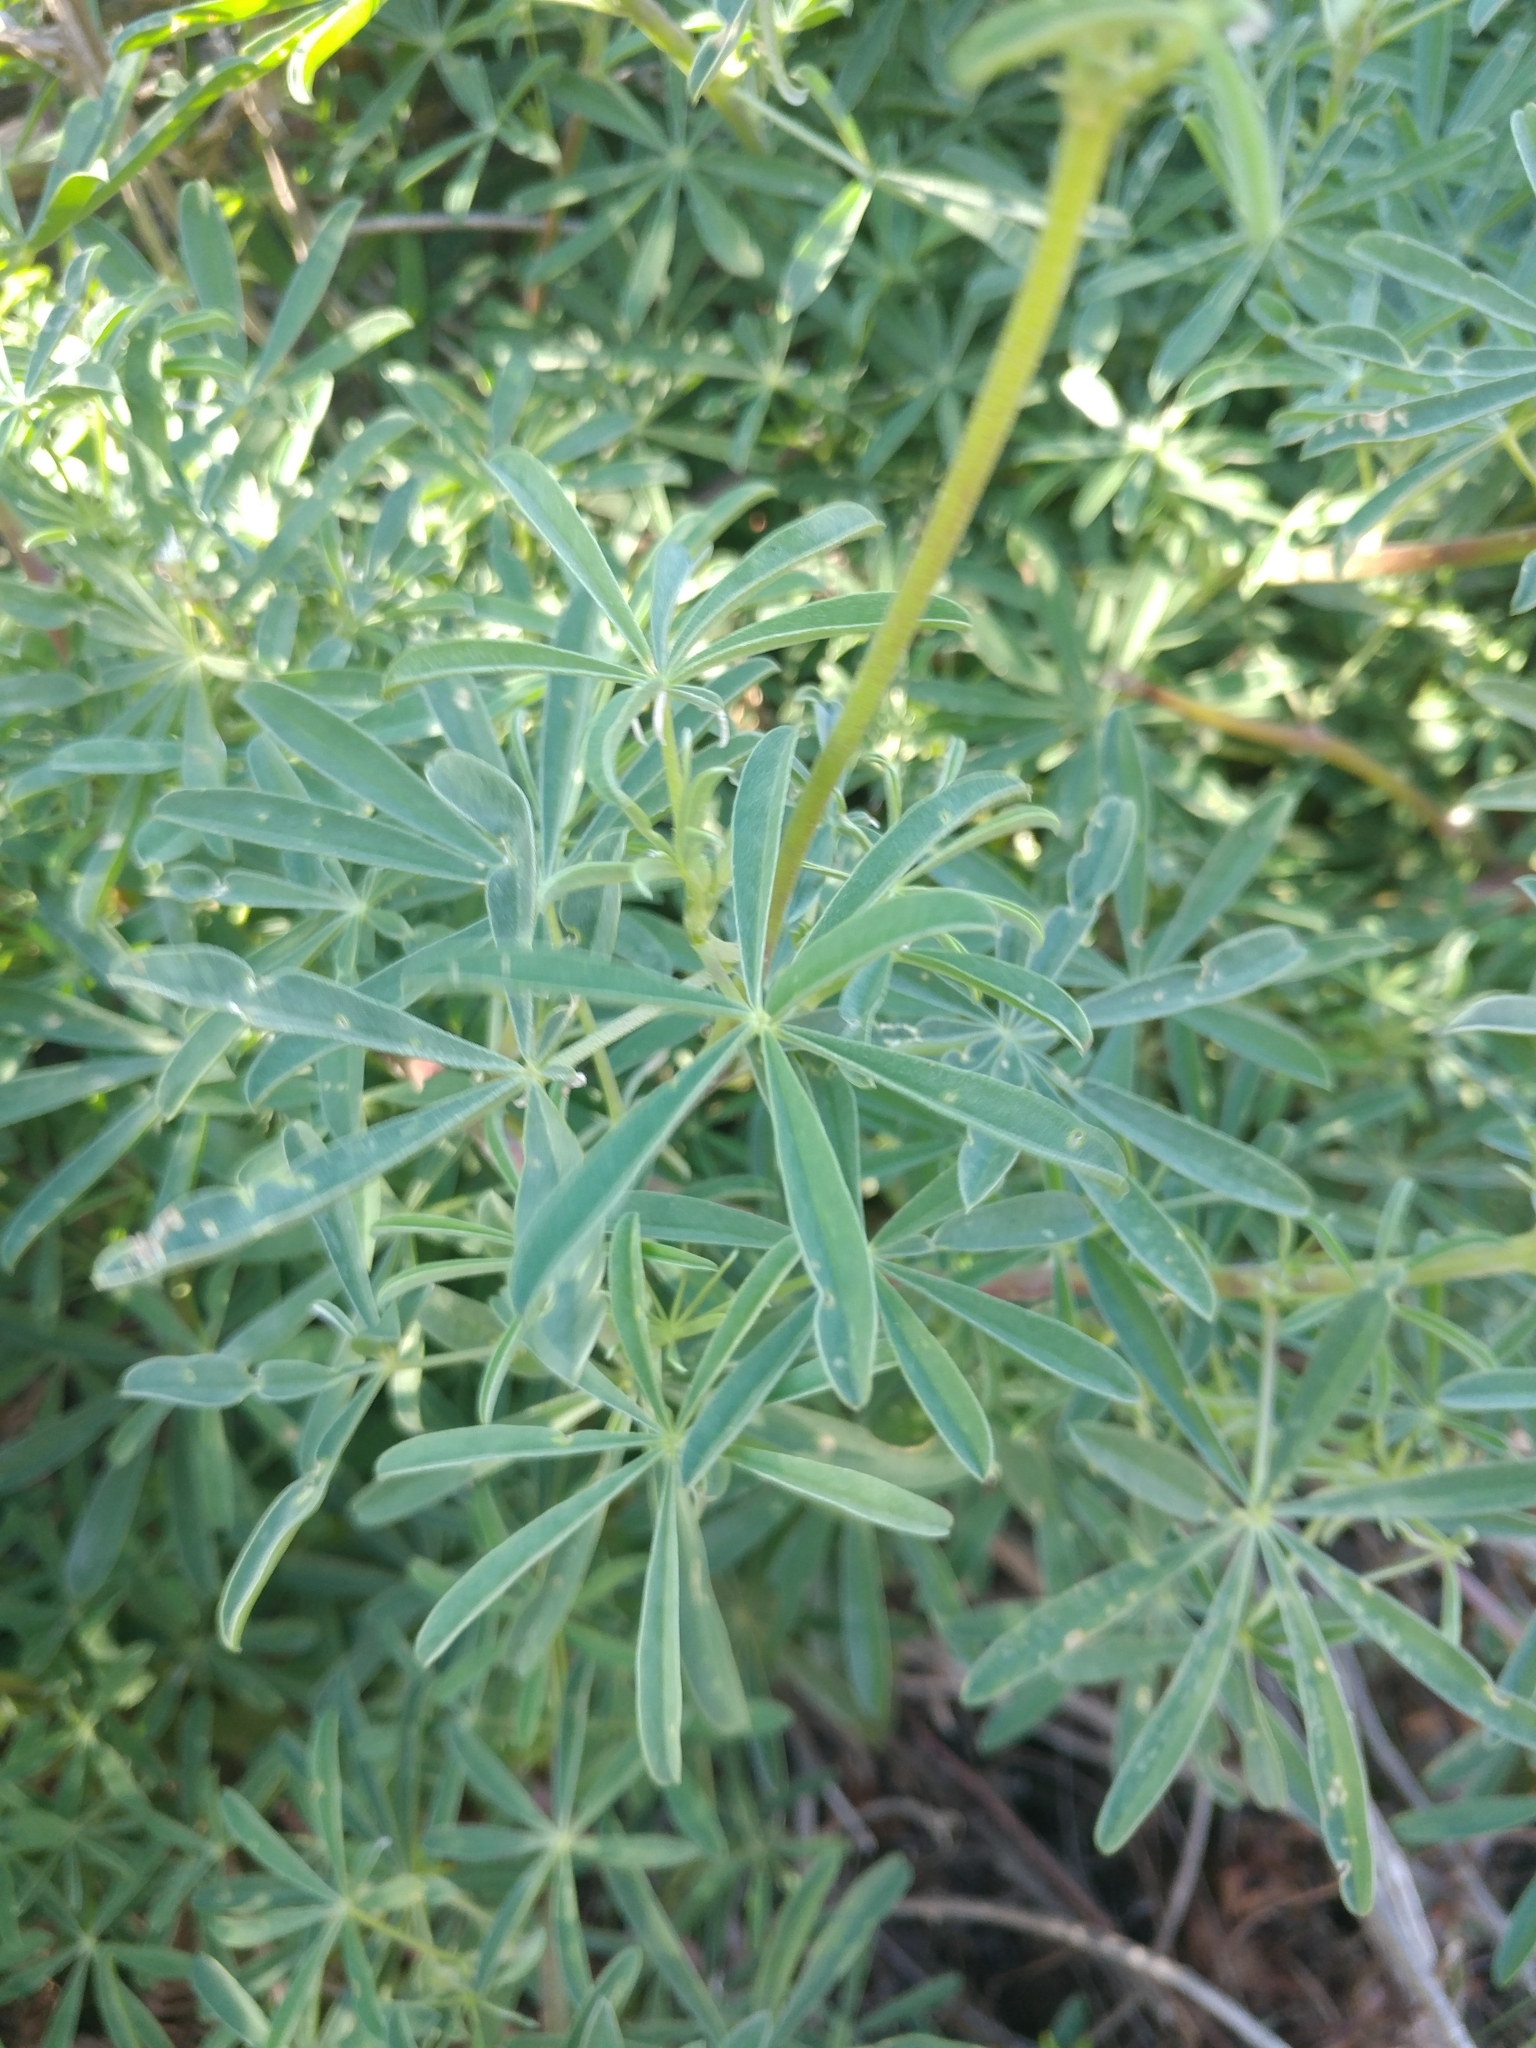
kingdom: Plantae
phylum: Tracheophyta
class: Magnoliopsida
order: Fabales
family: Fabaceae
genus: Lupinus
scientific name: Lupinus arboreus
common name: Yellow bush lupine
